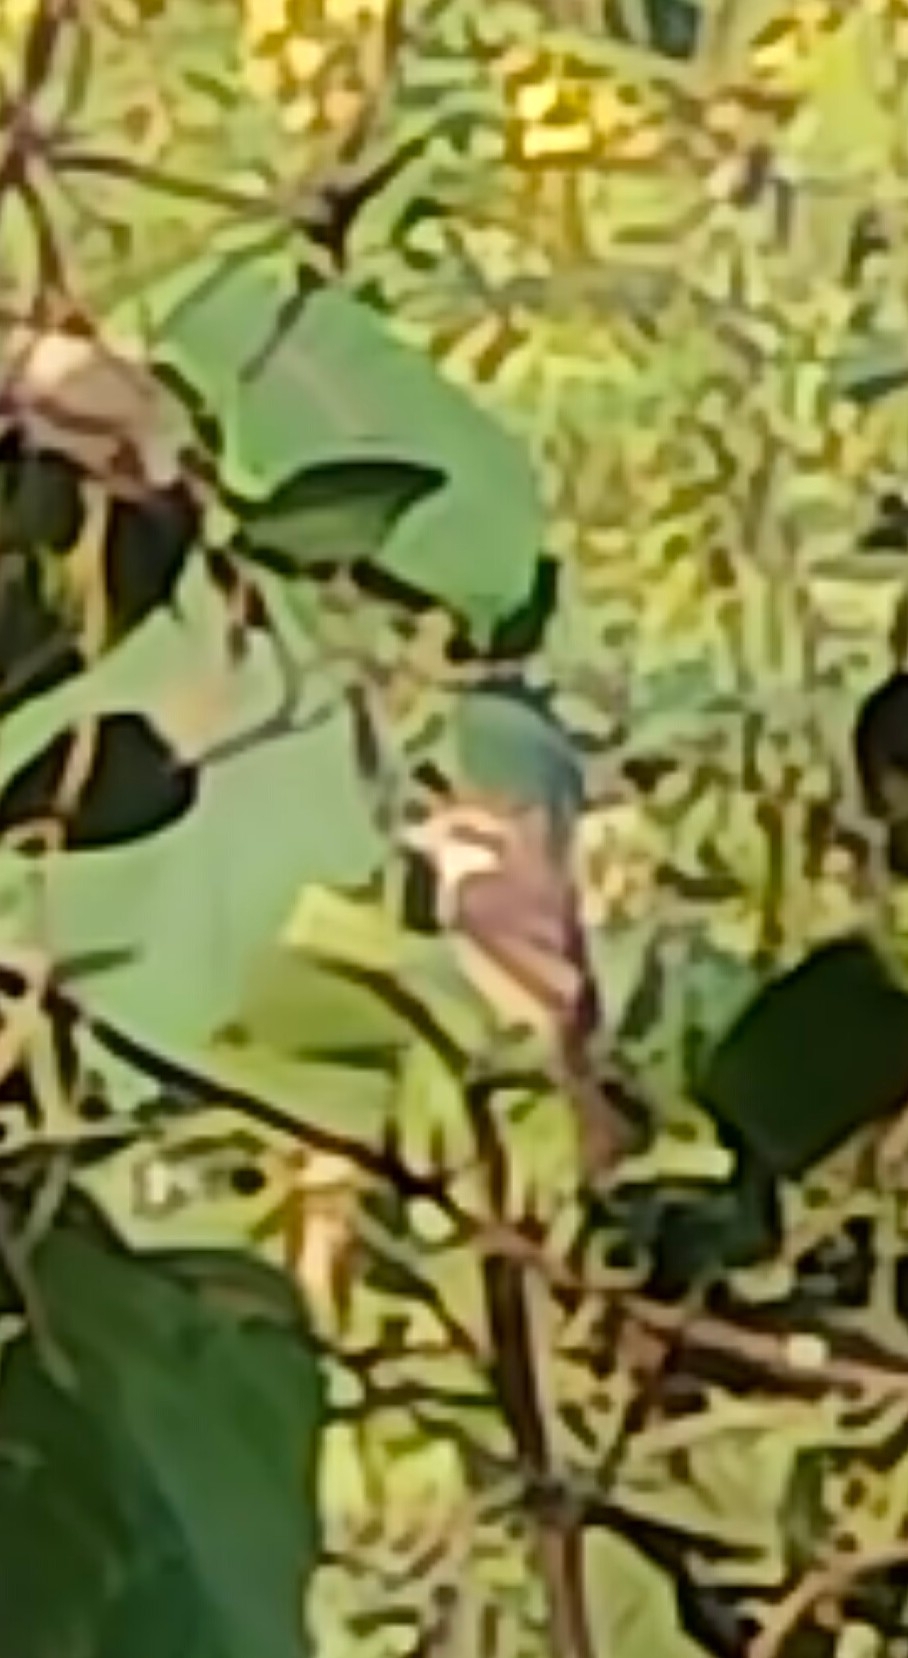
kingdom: Animalia
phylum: Chordata
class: Aves
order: Passeriformes
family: Laniidae
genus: Lanius
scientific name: Lanius cristatus
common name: Brown shrike
